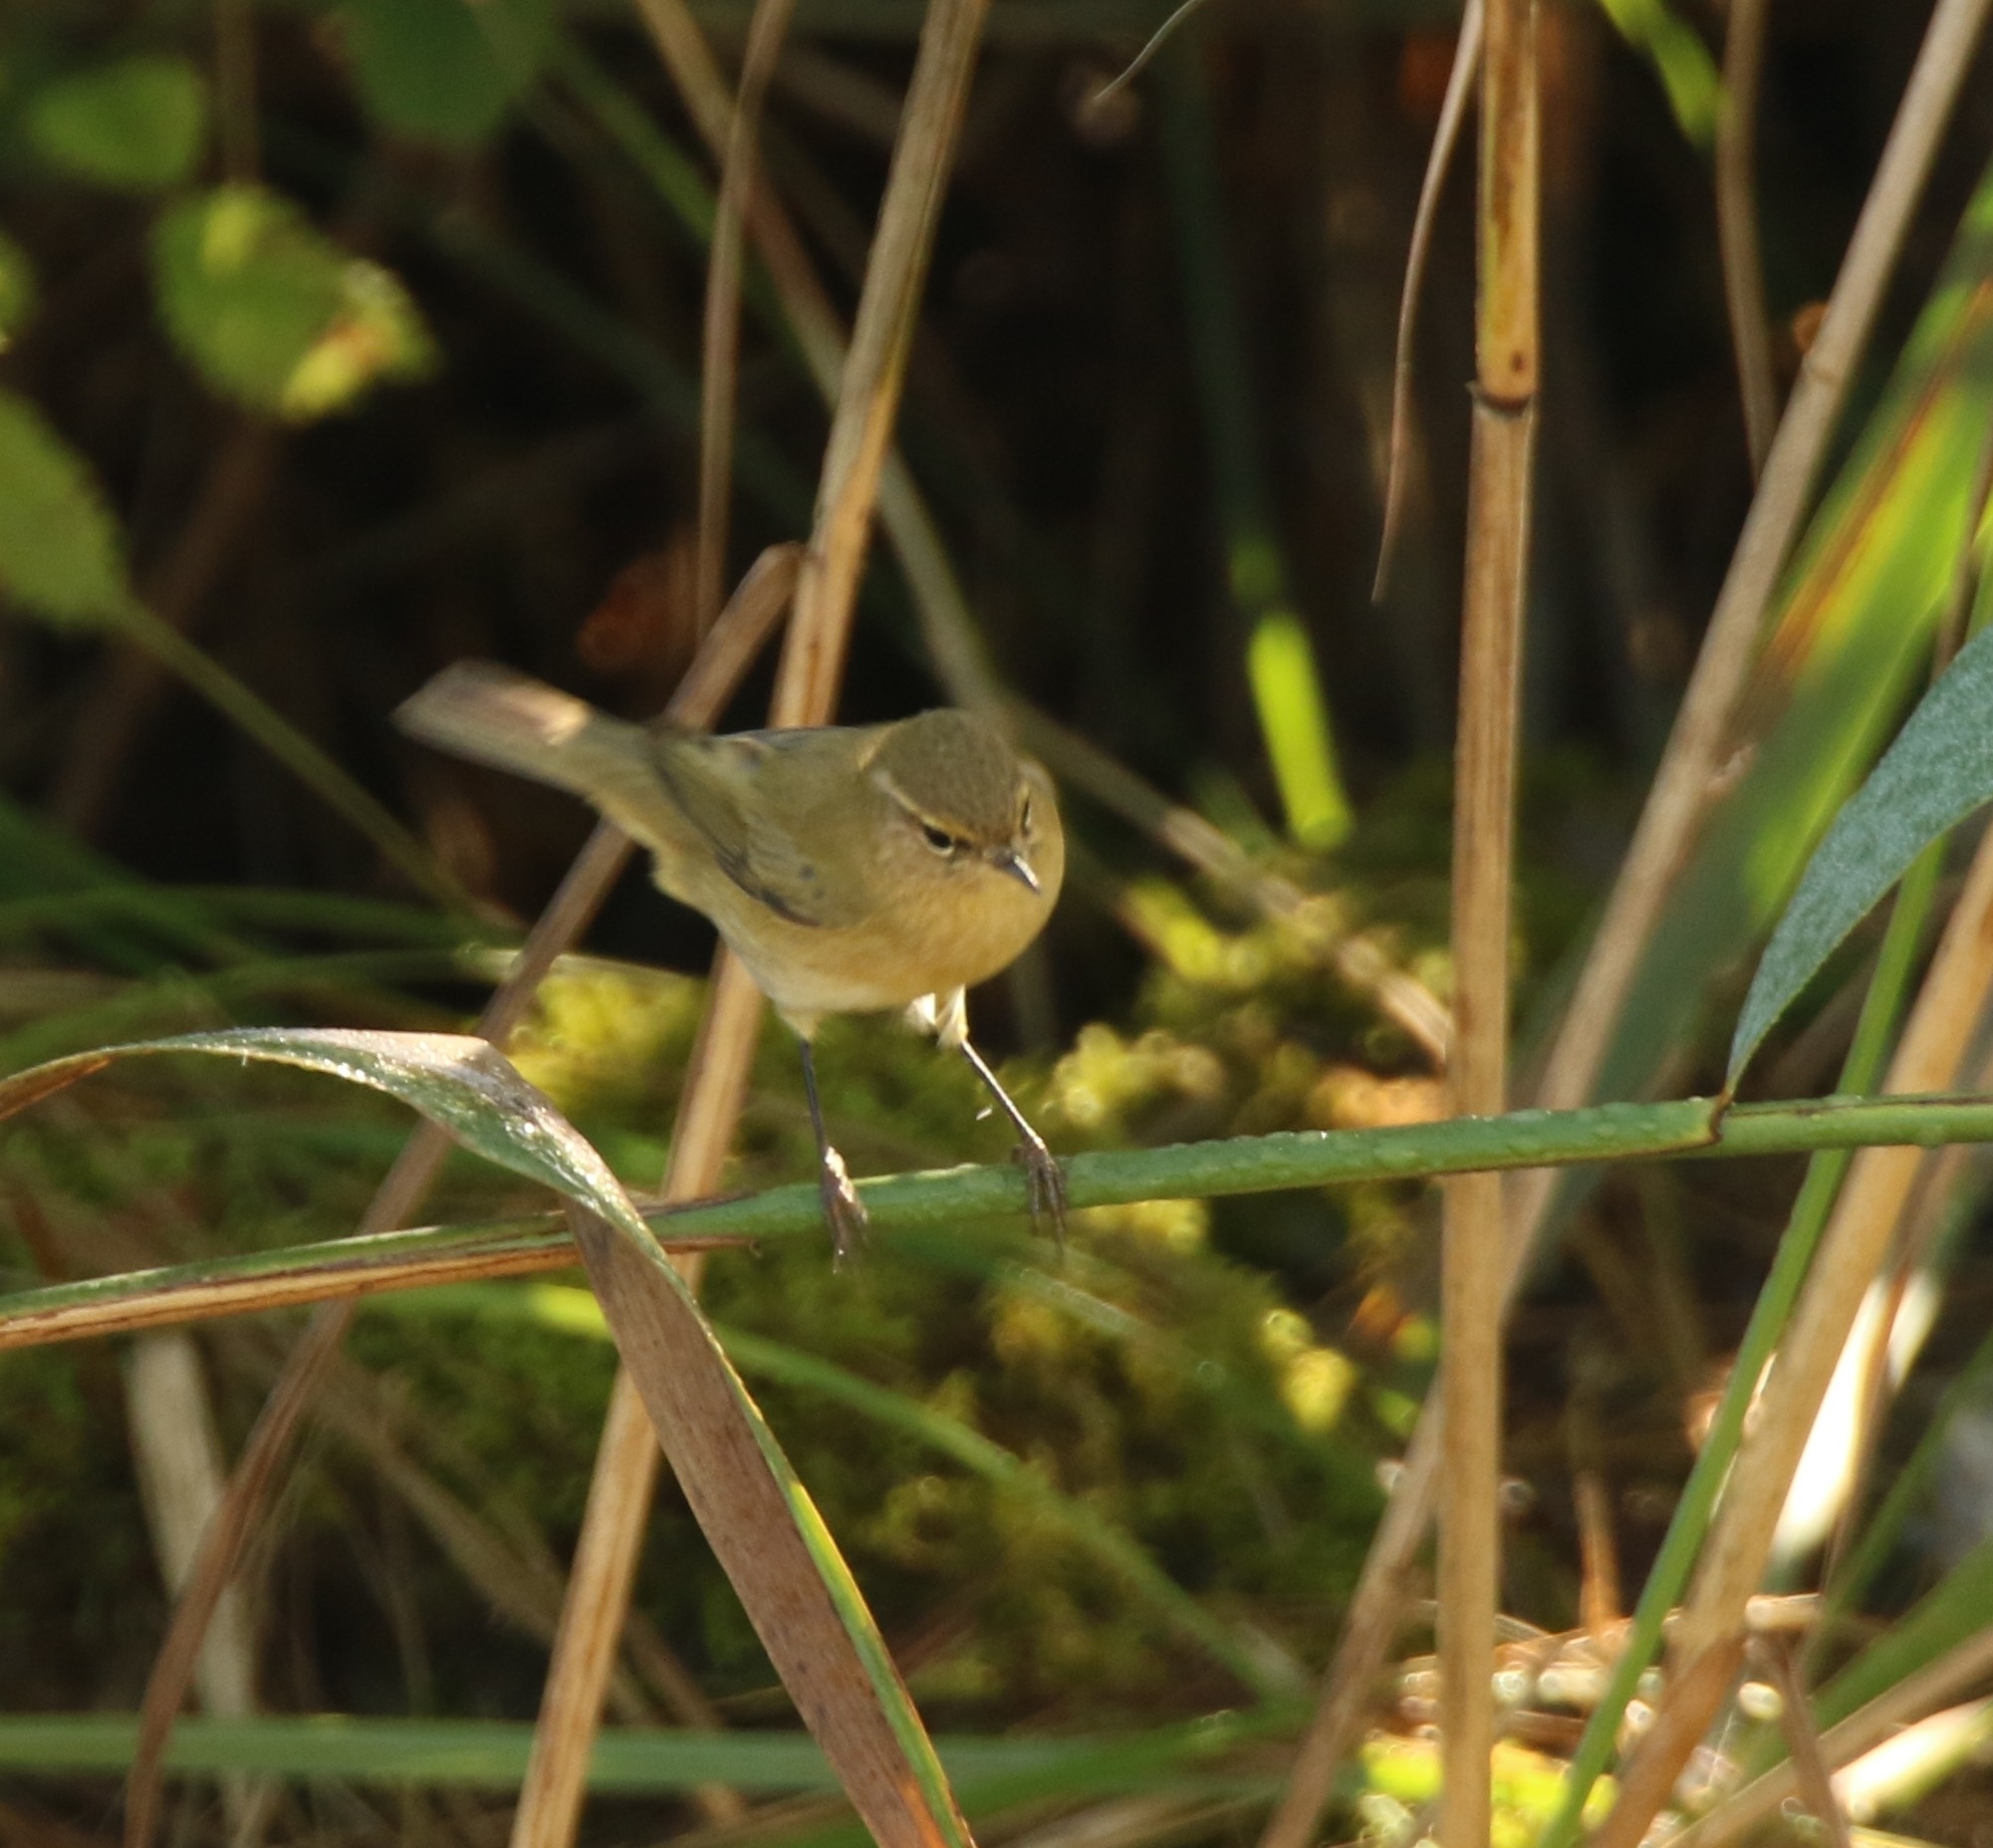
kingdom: Animalia
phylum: Chordata
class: Aves
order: Passeriformes
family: Phylloscopidae
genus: Phylloscopus
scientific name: Phylloscopus collybita
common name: Common chiffchaff
